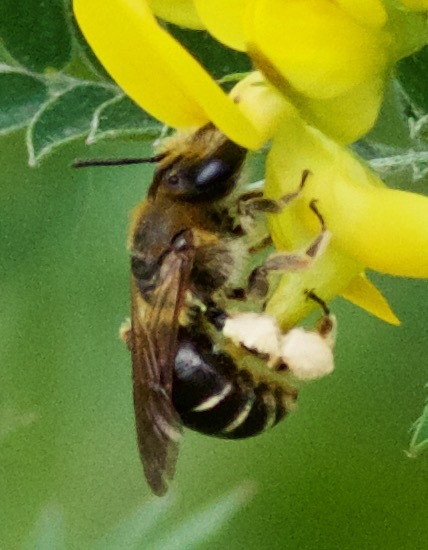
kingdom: Animalia
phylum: Arthropoda
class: Insecta
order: Hymenoptera
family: Andrenidae
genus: Andrena
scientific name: Andrena wilkella
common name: Wilke's mining bee
